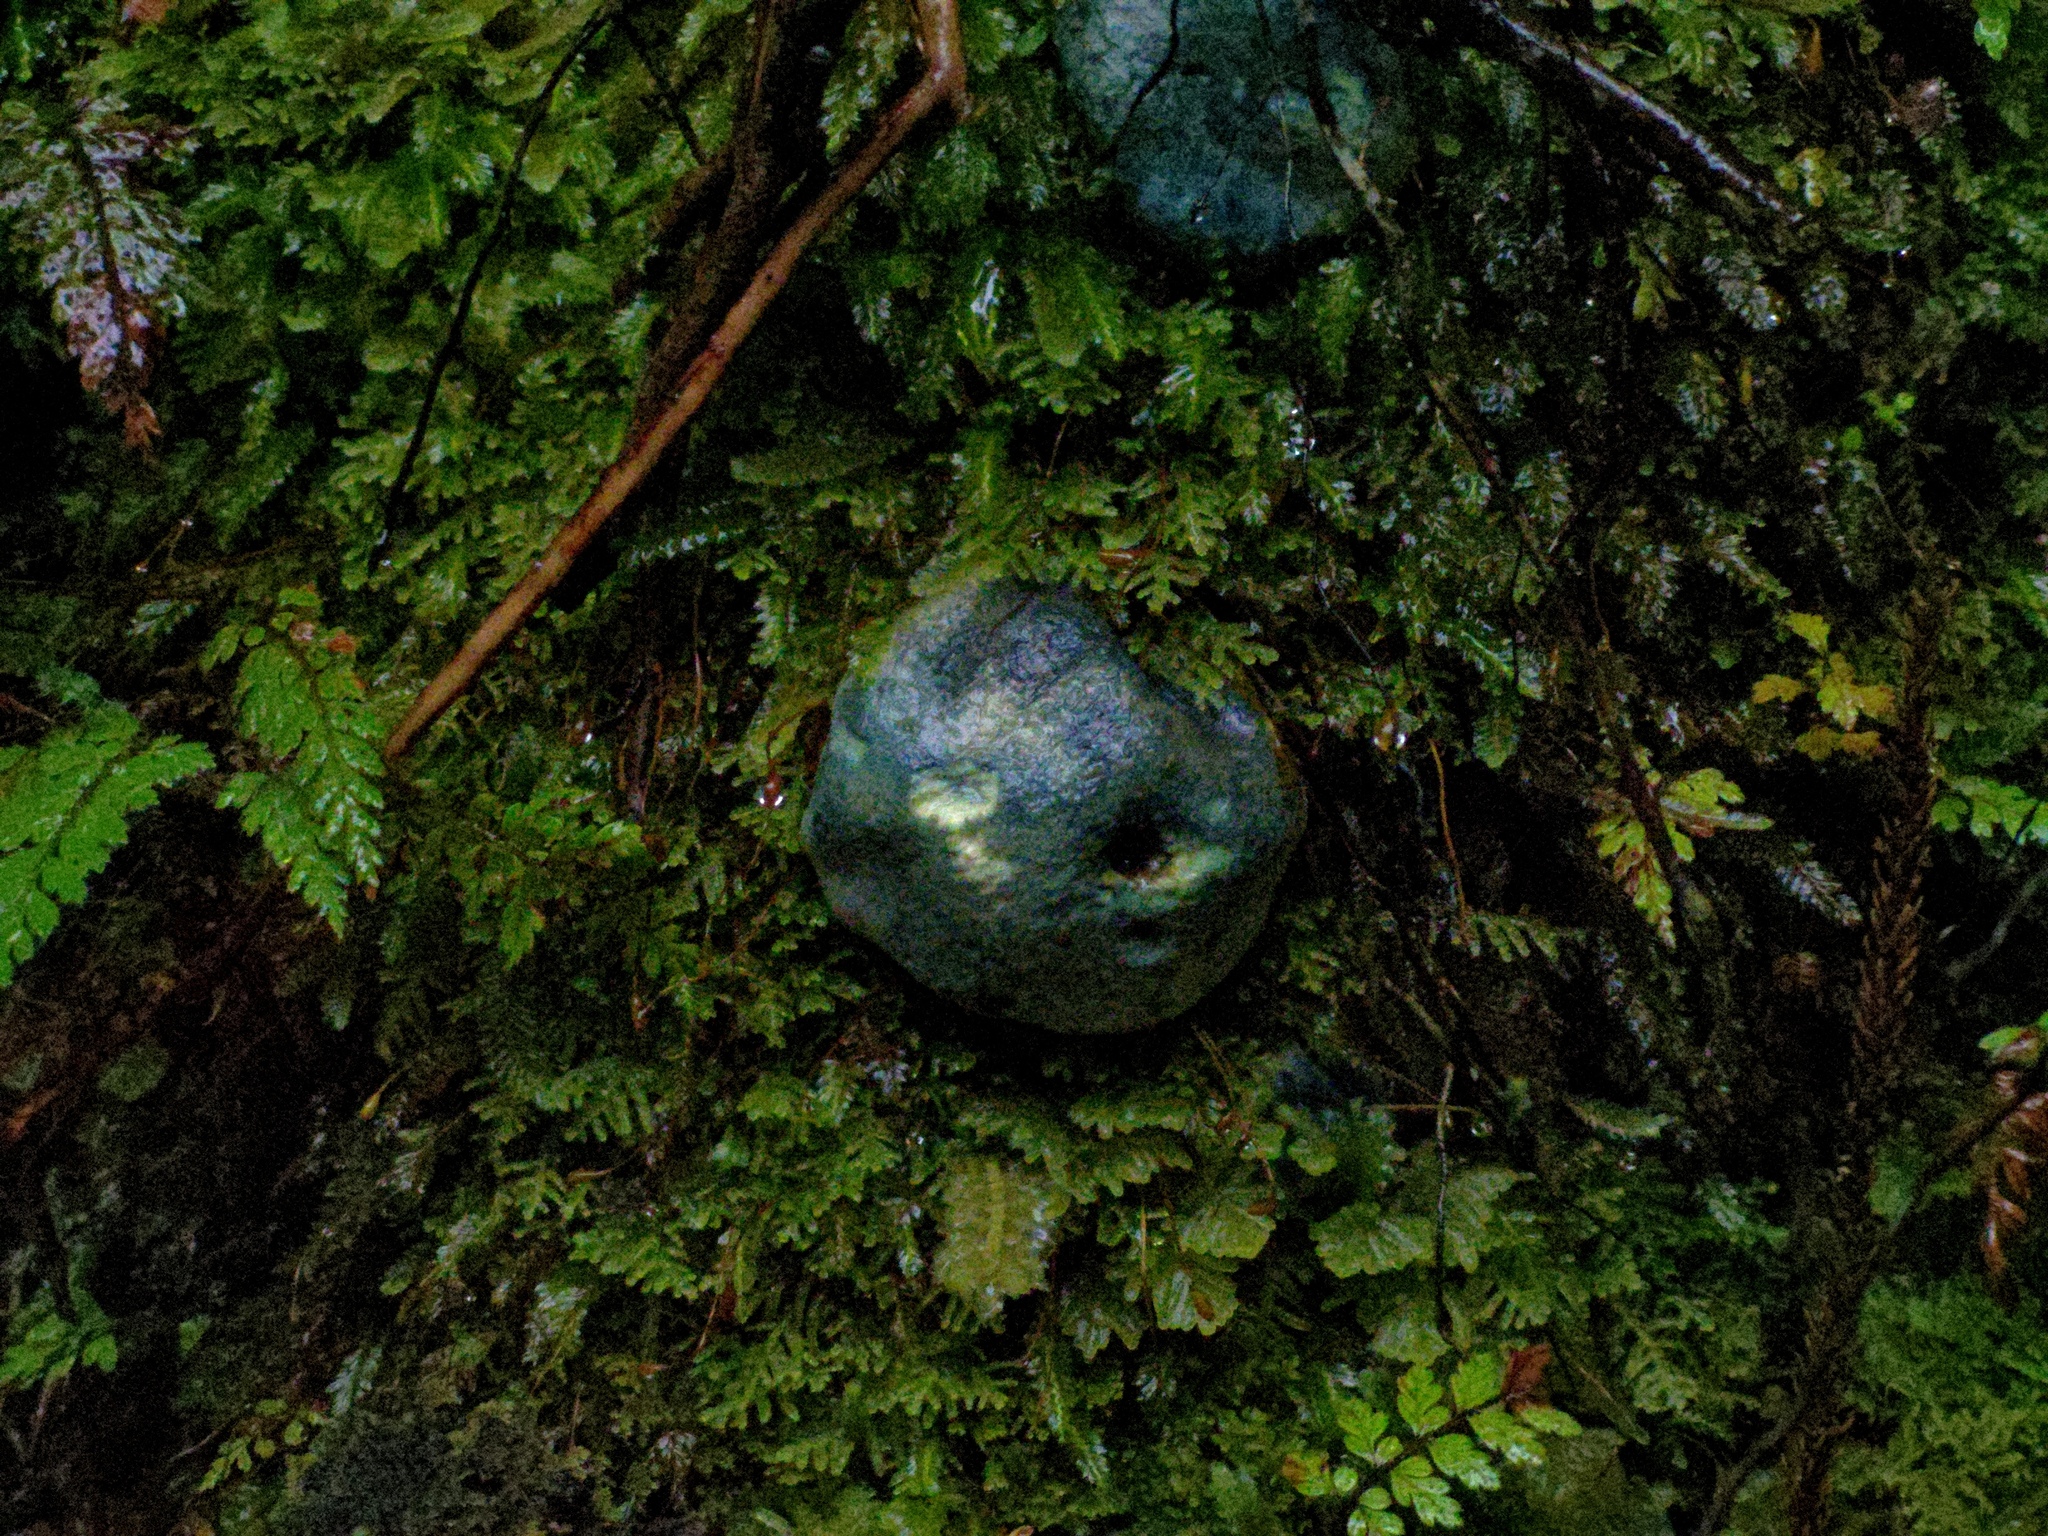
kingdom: Fungi
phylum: Basidiomycota
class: Agaricomycetes
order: Boletales
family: Boletaceae
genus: Leccinum
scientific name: Leccinum pachyderme
